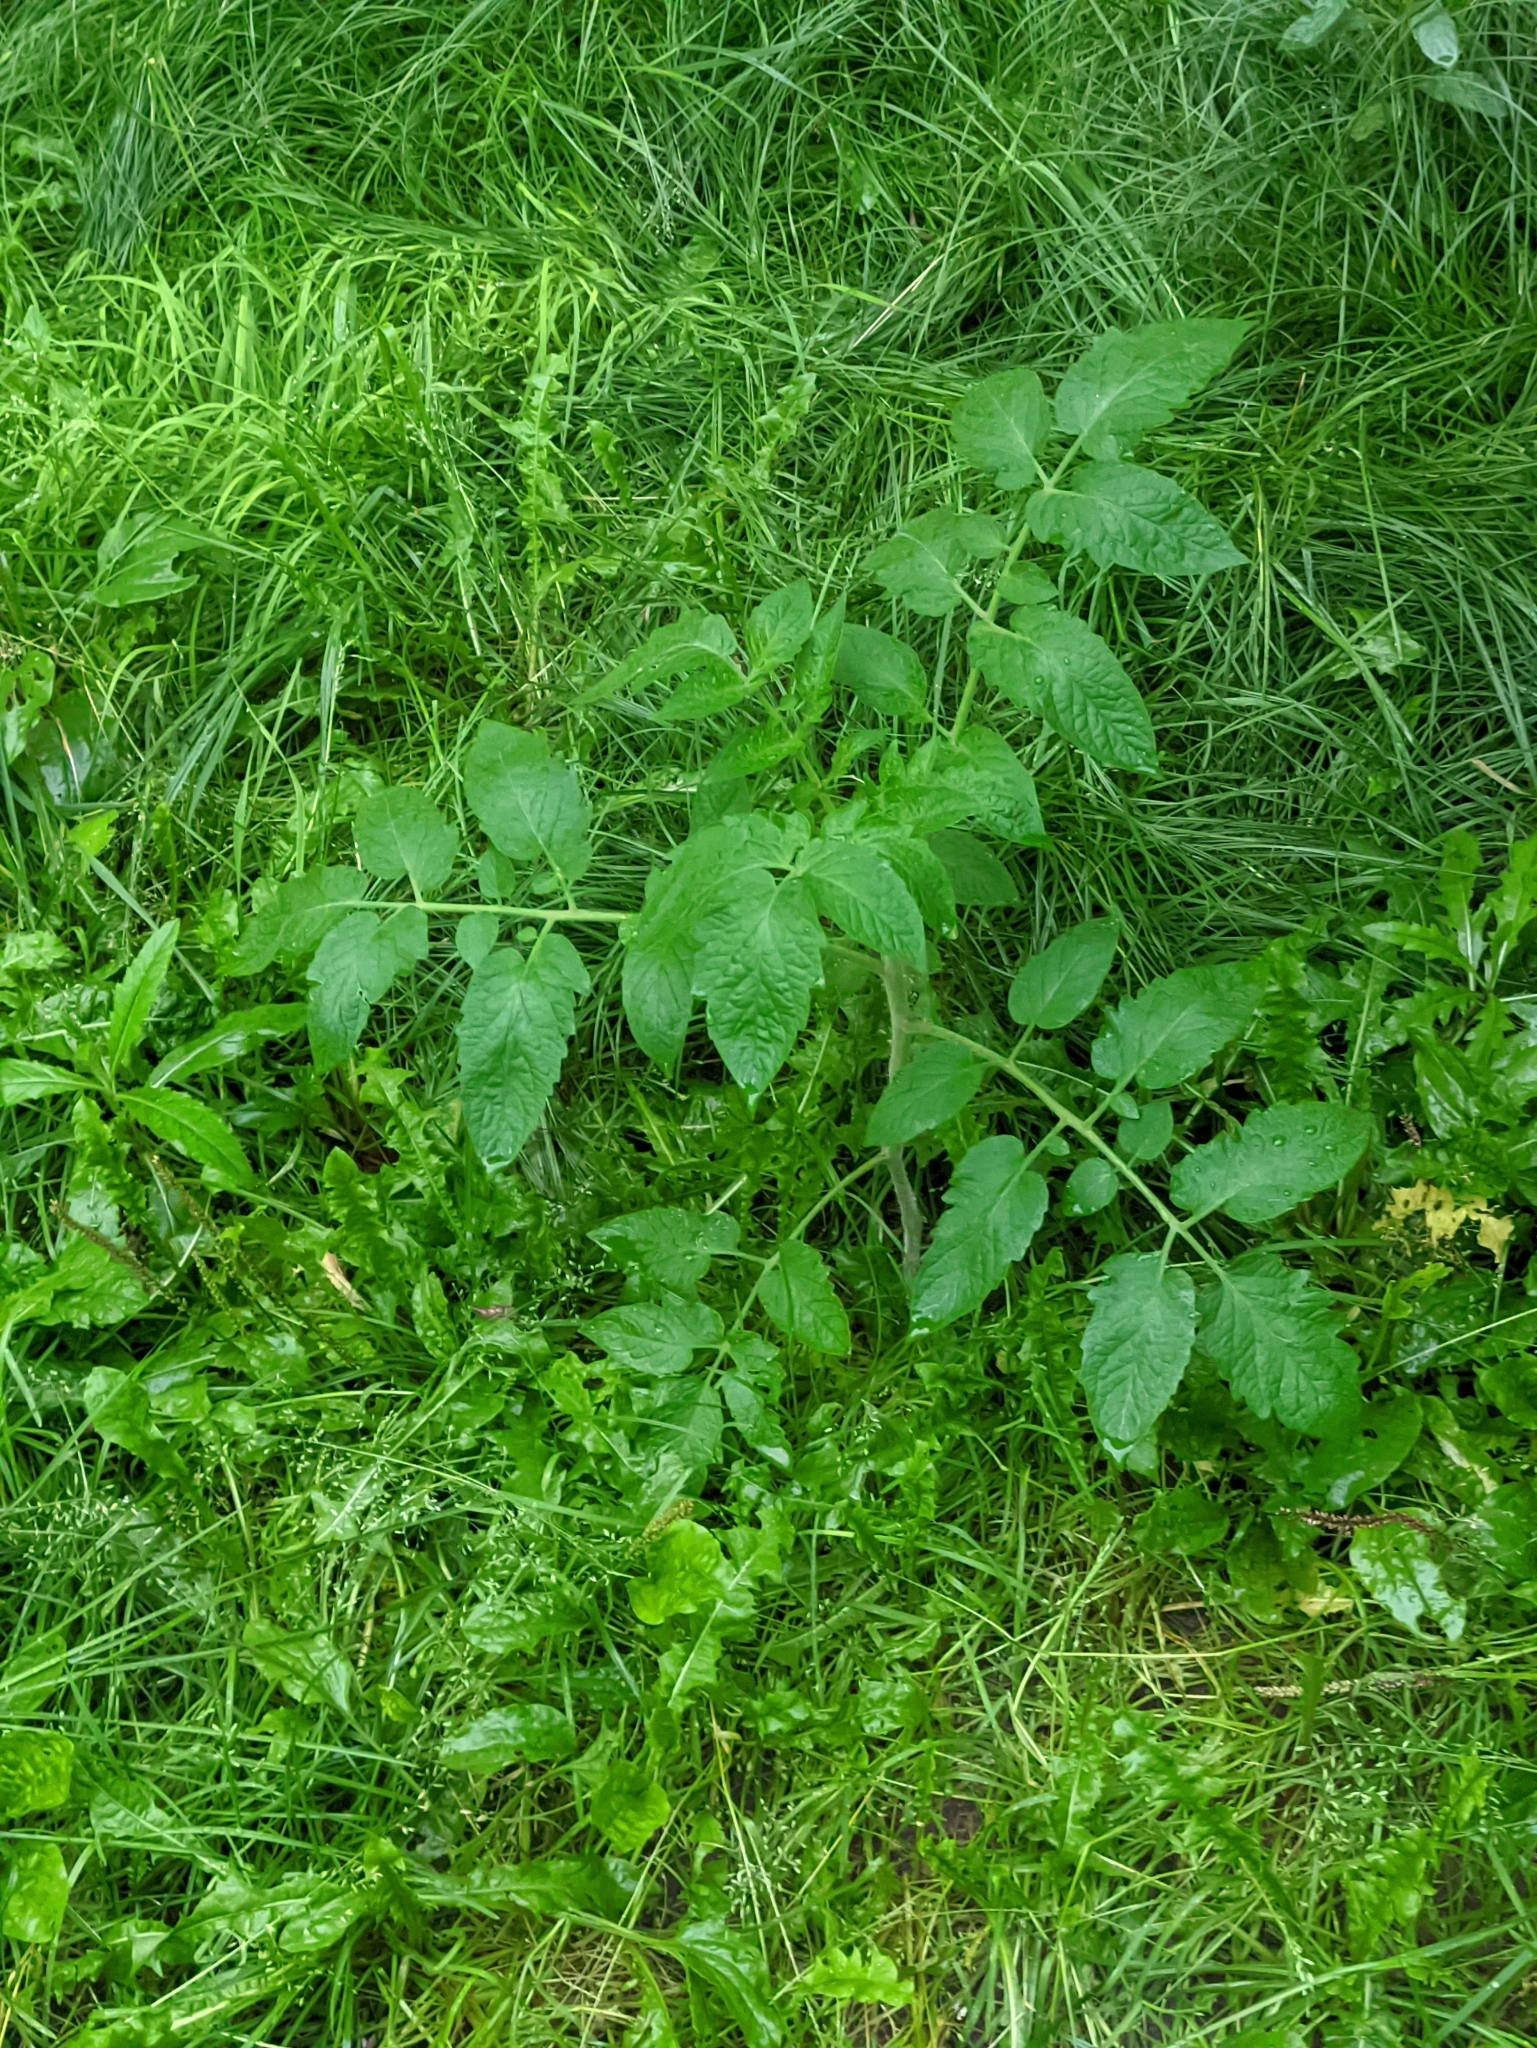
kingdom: Plantae
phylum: Tracheophyta
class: Magnoliopsida
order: Solanales
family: Solanaceae
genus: Solanum
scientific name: Solanum lycopersicum
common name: Garden tomato
